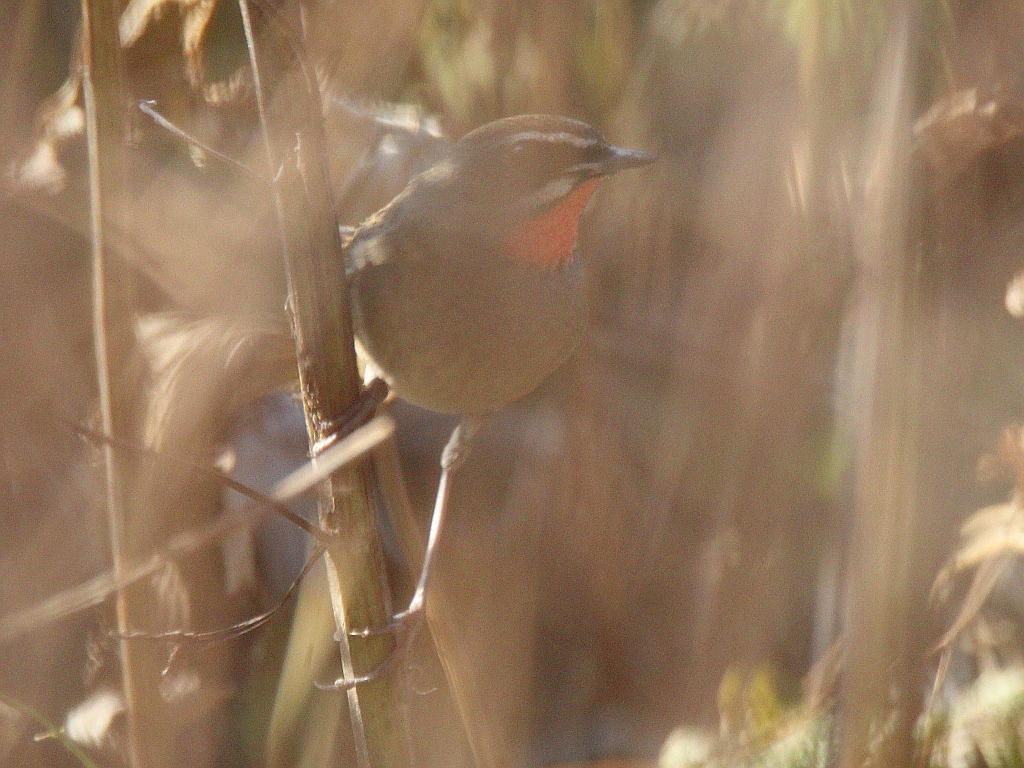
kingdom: Animalia
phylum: Chordata
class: Aves
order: Passeriformes
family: Muscicapidae
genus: Luscinia
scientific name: Luscinia calliope
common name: Siberian rubythroat
